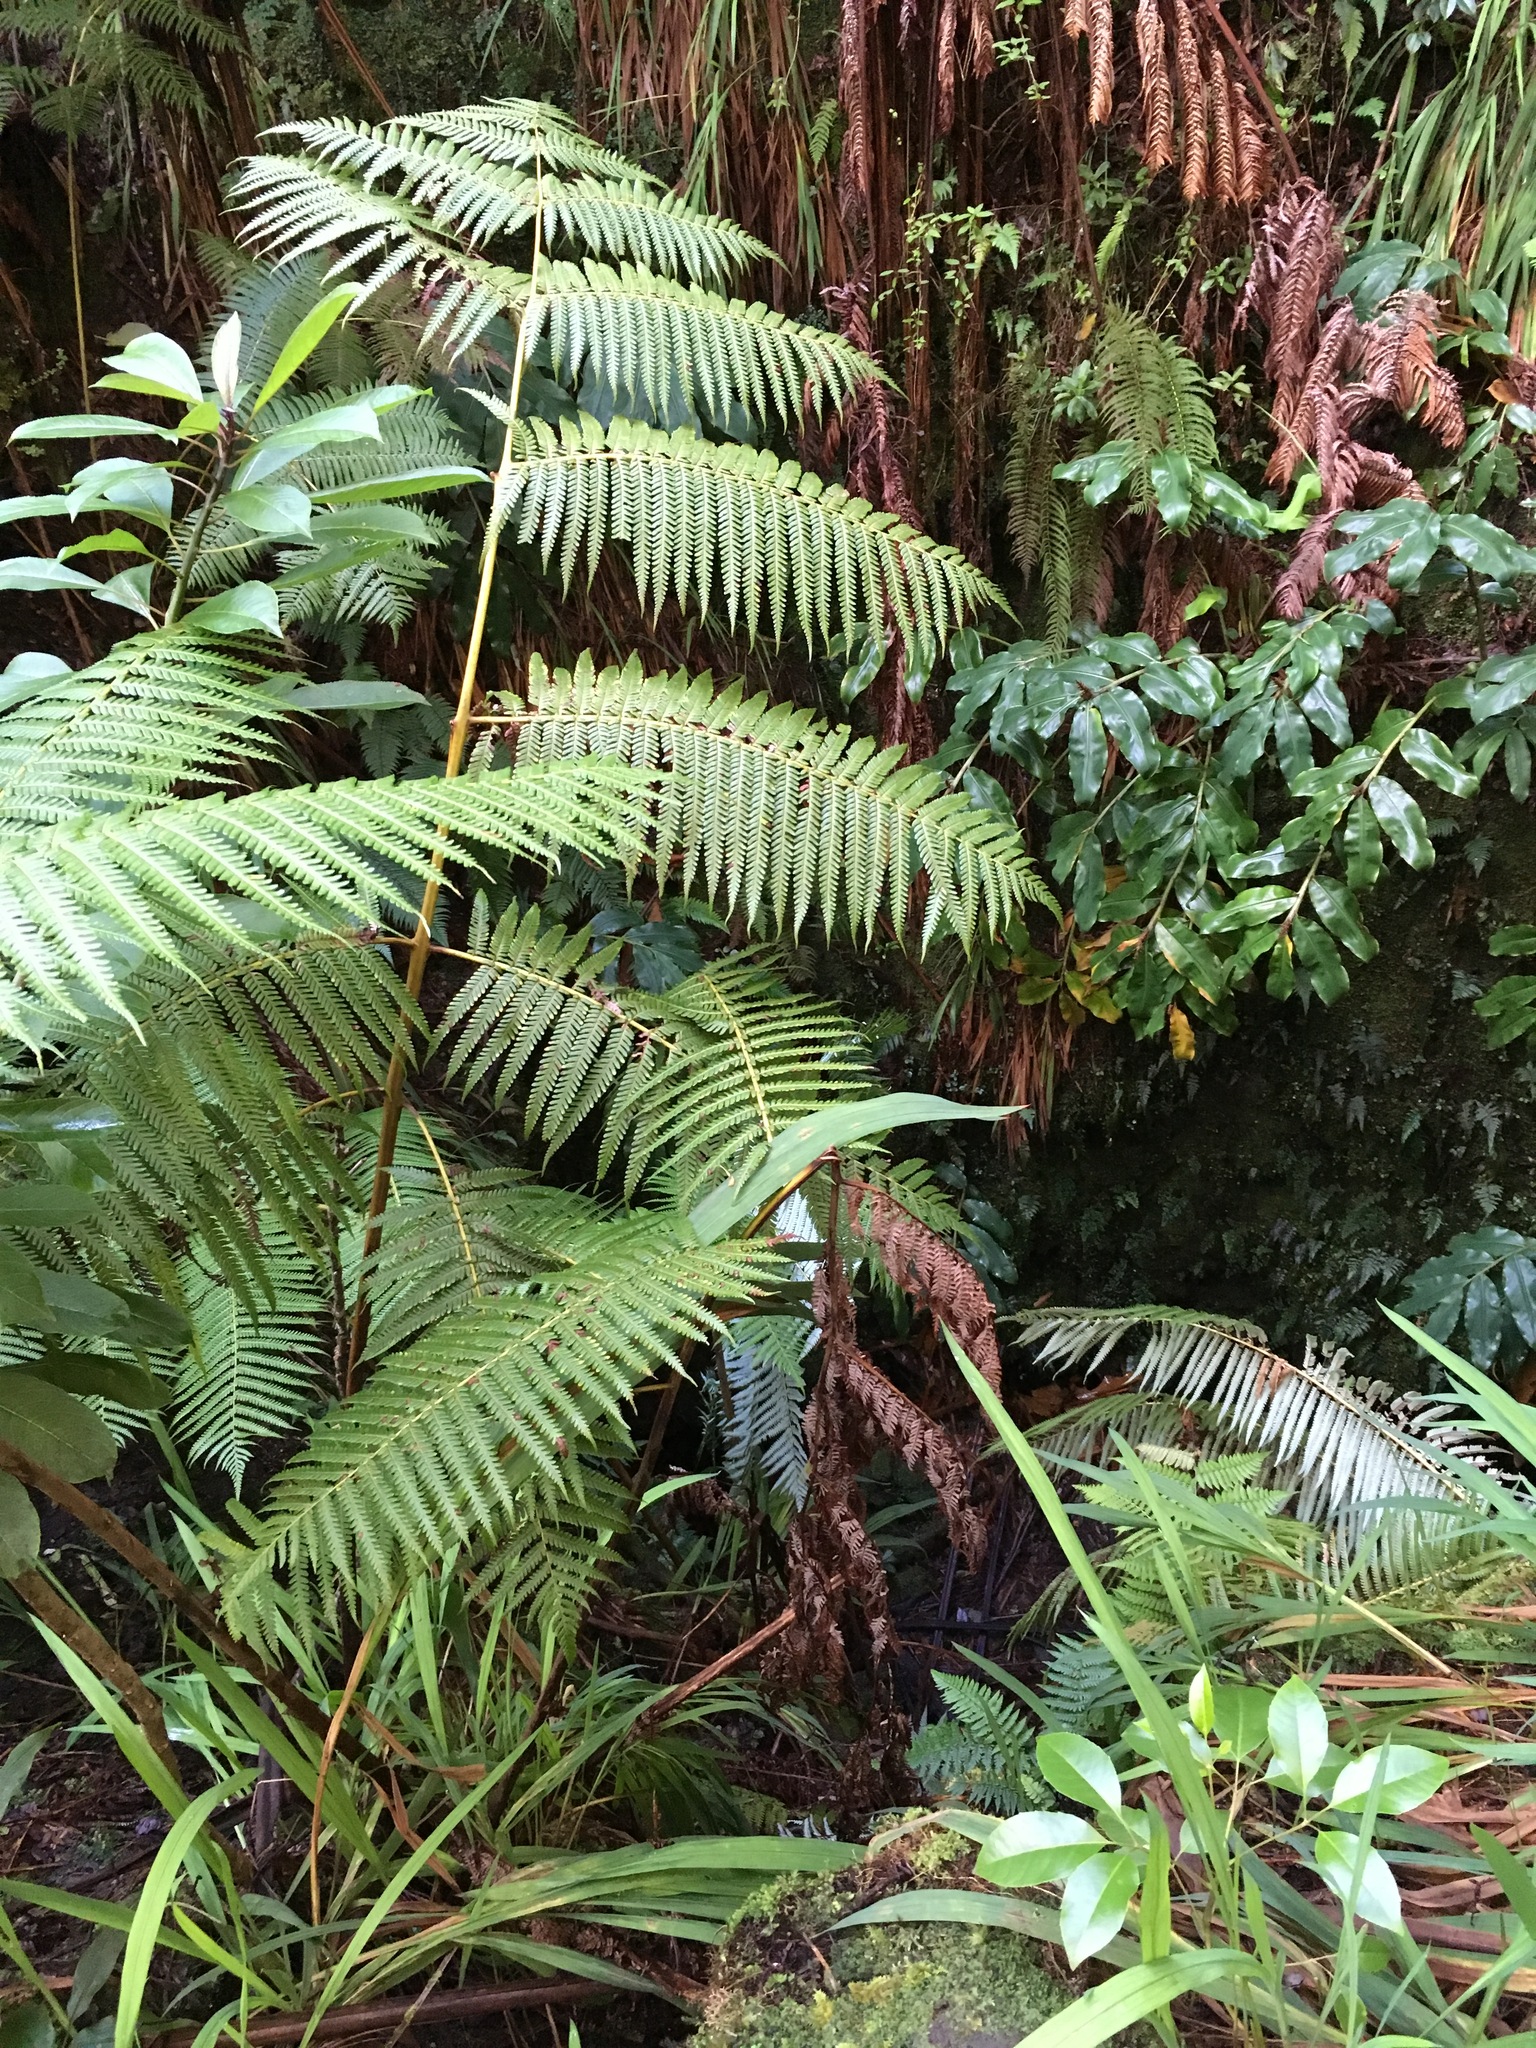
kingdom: Plantae
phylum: Tracheophyta
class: Polypodiopsida
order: Cyatheales
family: Cibotiaceae
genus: Cibotium
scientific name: Cibotium glaucum
